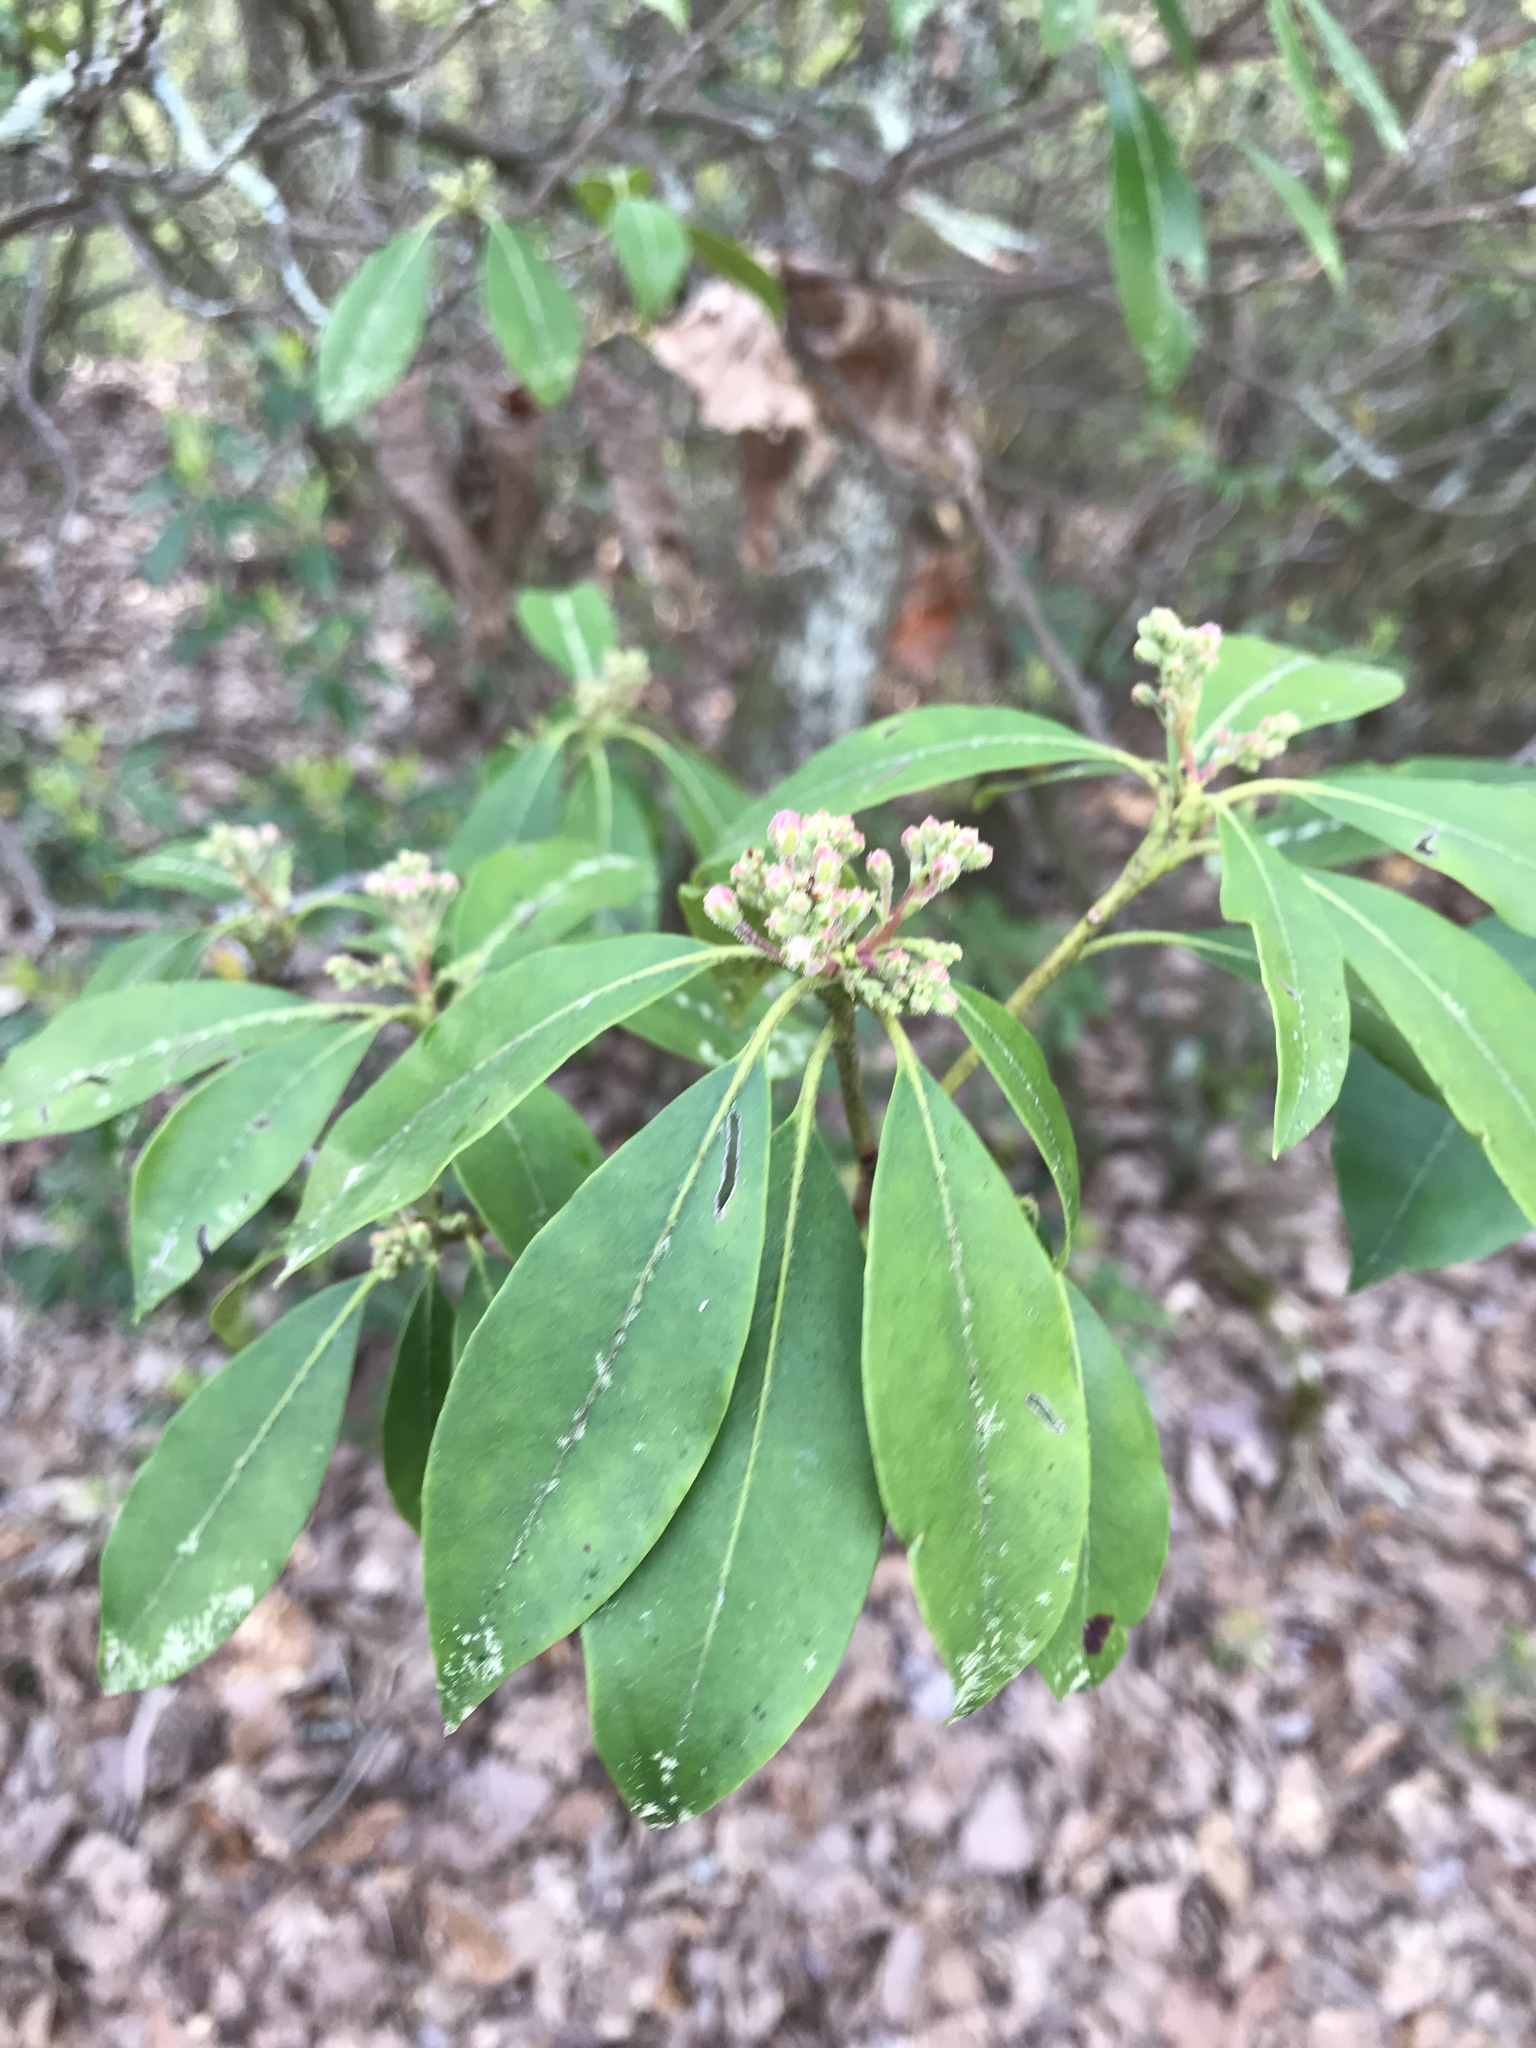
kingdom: Plantae
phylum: Tracheophyta
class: Magnoliopsida
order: Ericales
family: Ericaceae
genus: Kalmia
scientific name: Kalmia latifolia
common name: Mountain-laurel
